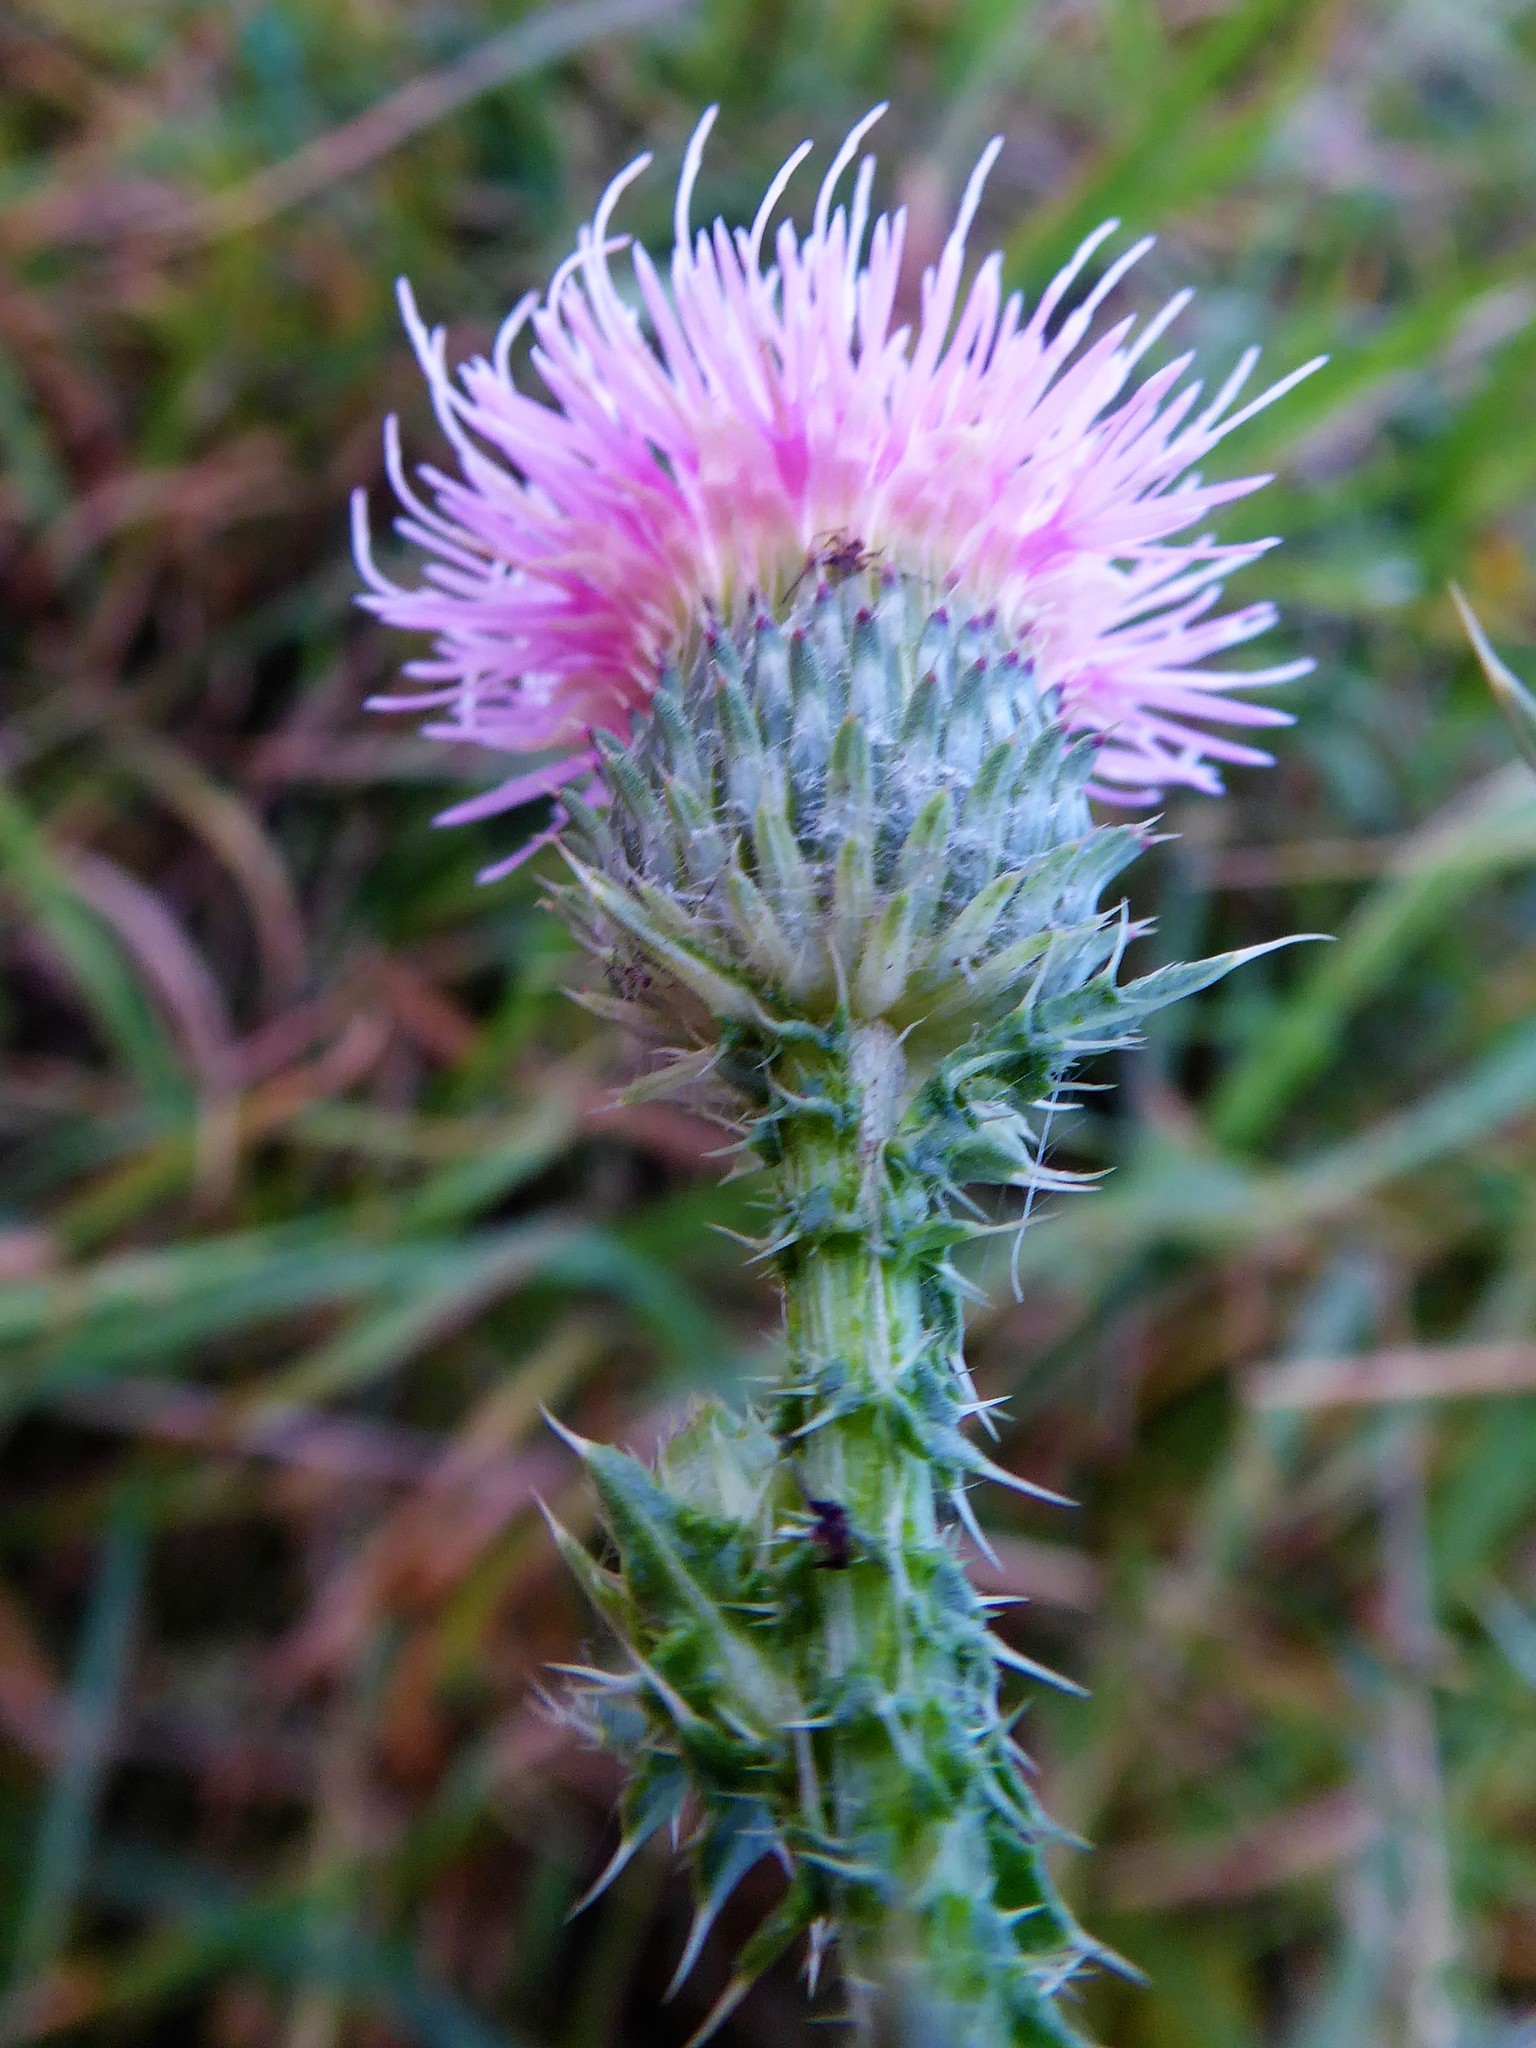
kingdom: Plantae
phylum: Tracheophyta
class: Magnoliopsida
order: Asterales
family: Asteraceae
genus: Carduus
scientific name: Carduus acanthoides
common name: Plumeless thistle
